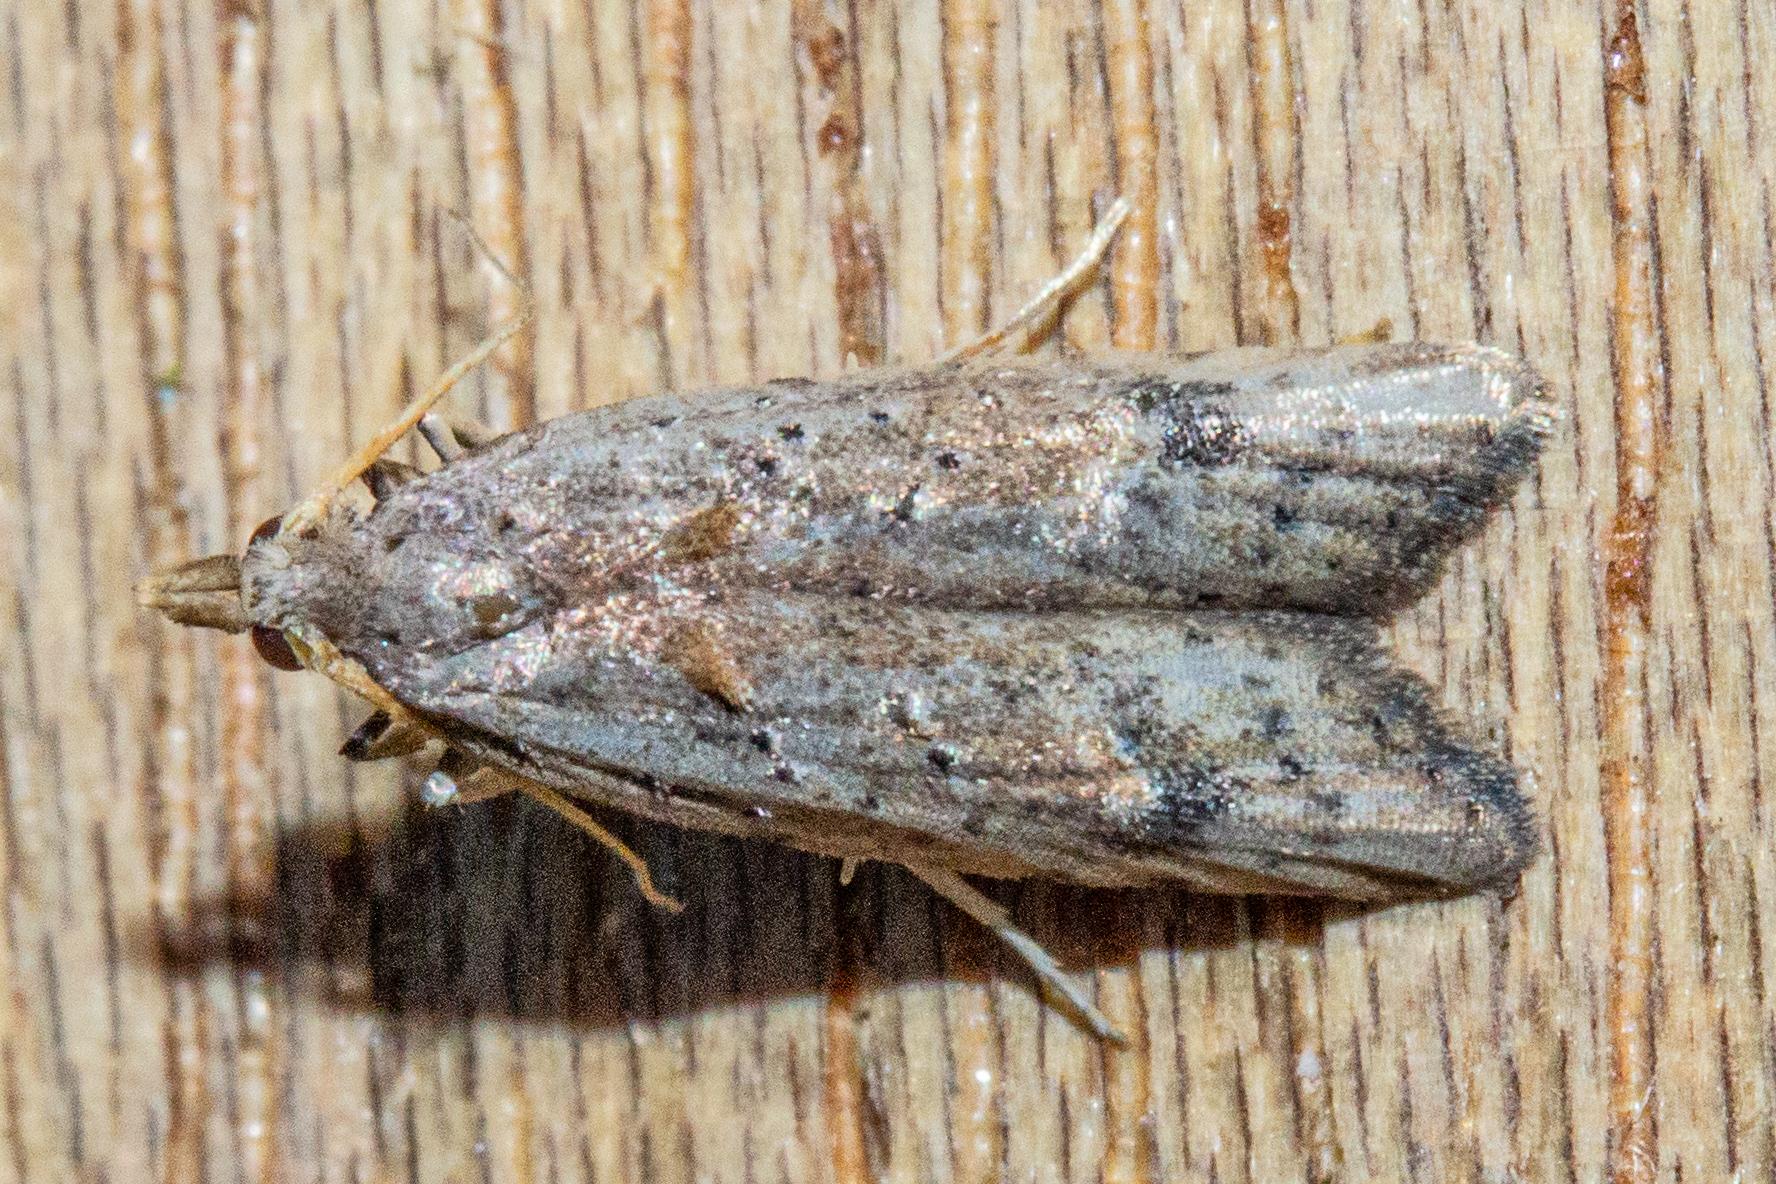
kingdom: Animalia
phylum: Arthropoda
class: Insecta
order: Lepidoptera
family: Carposinidae
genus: Carposina
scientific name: Carposina rubophaga
